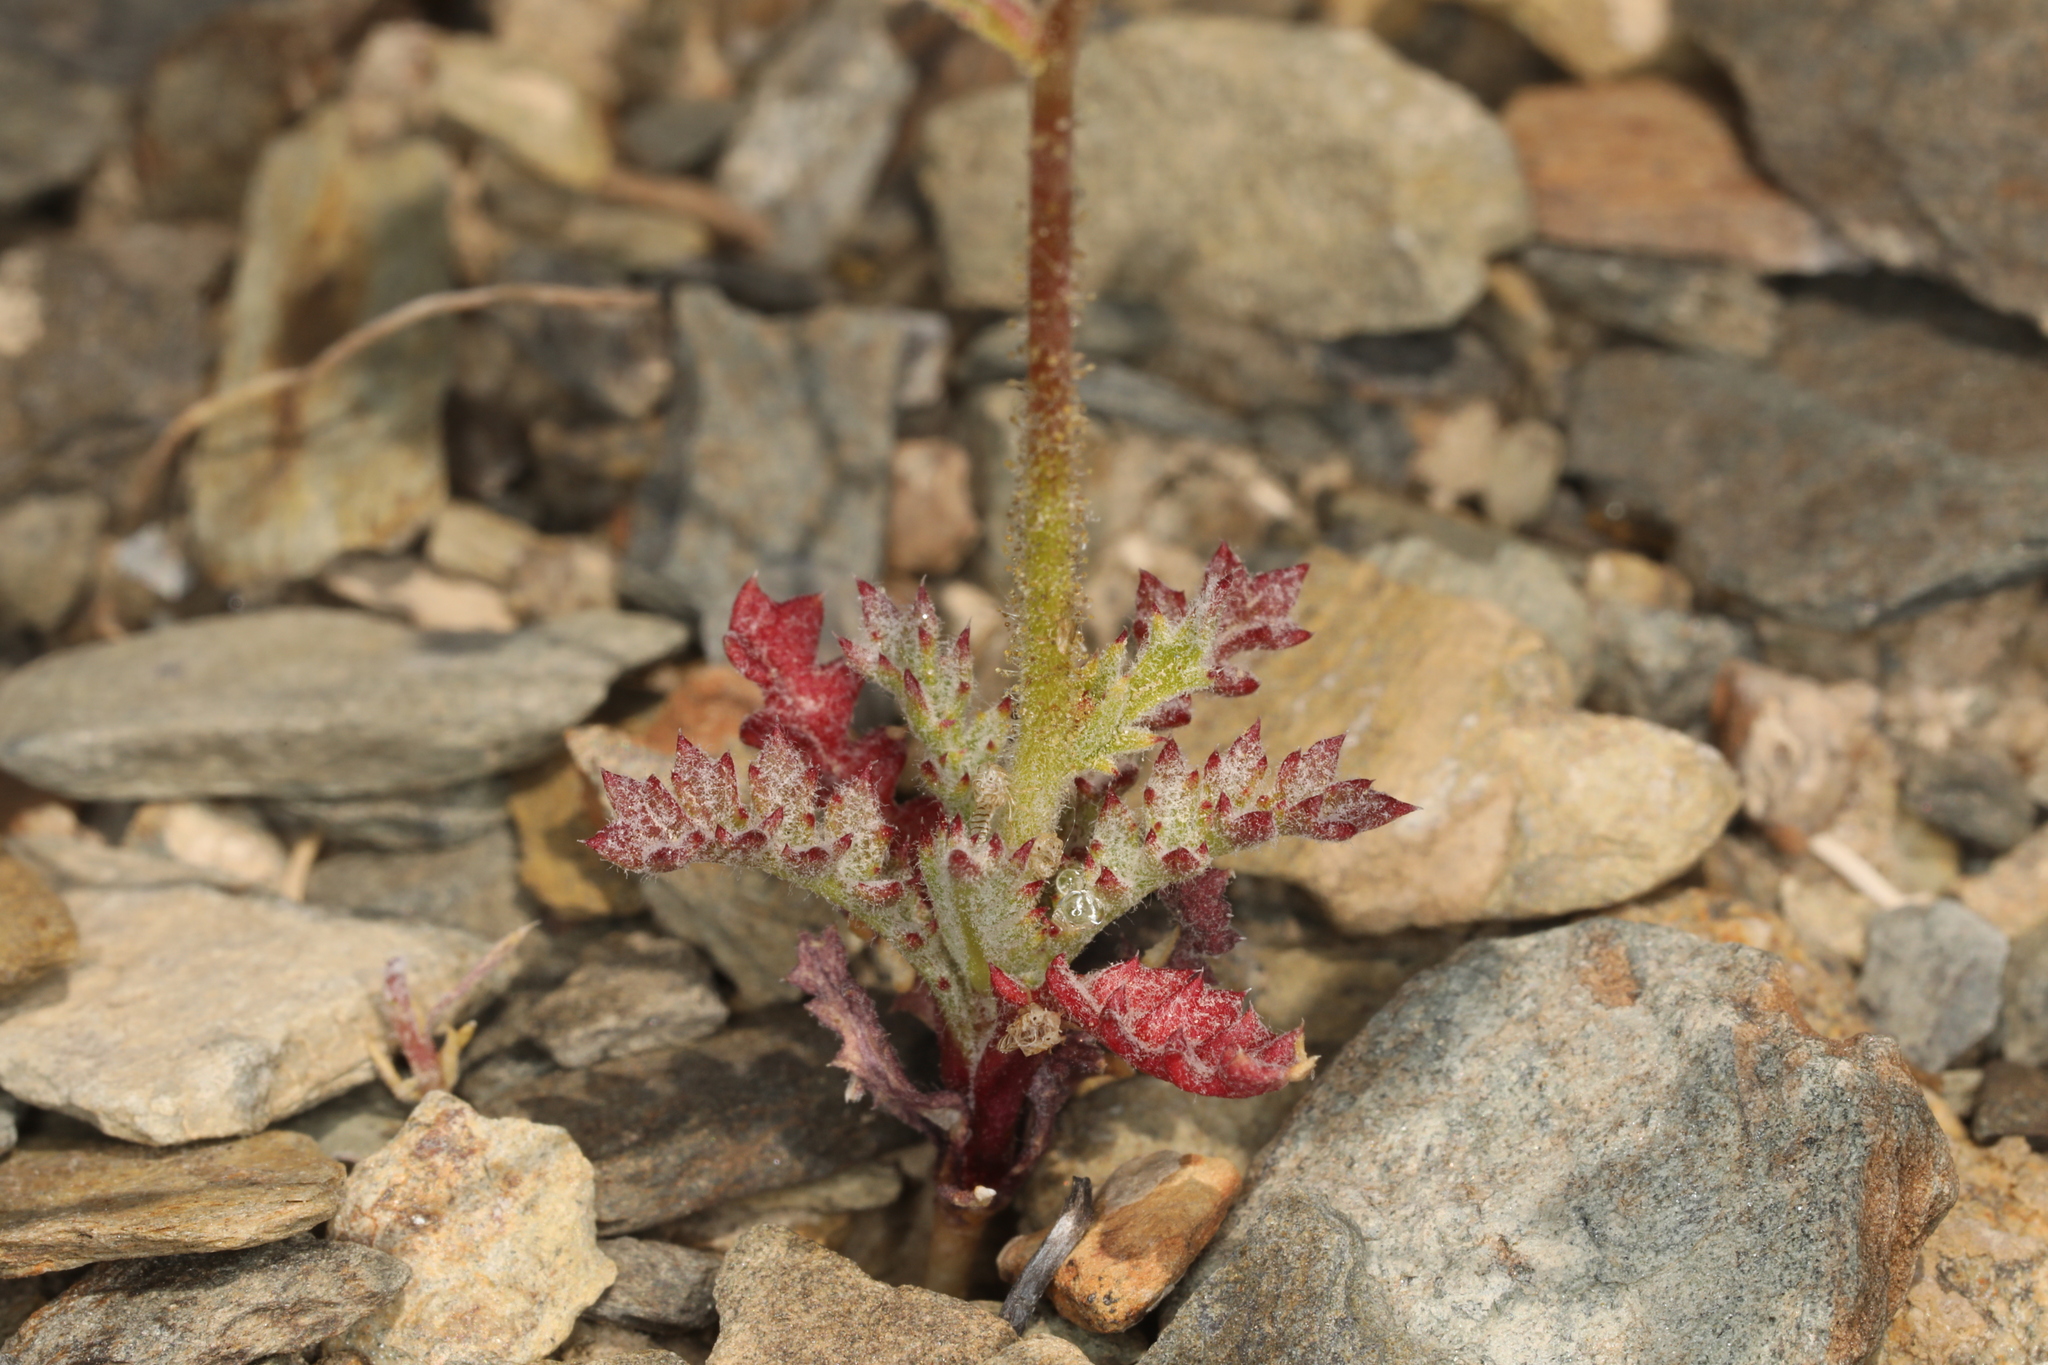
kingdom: Plantae
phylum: Tracheophyta
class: Magnoliopsida
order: Ericales
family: Polemoniaceae
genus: Gilia
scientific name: Gilia cana
